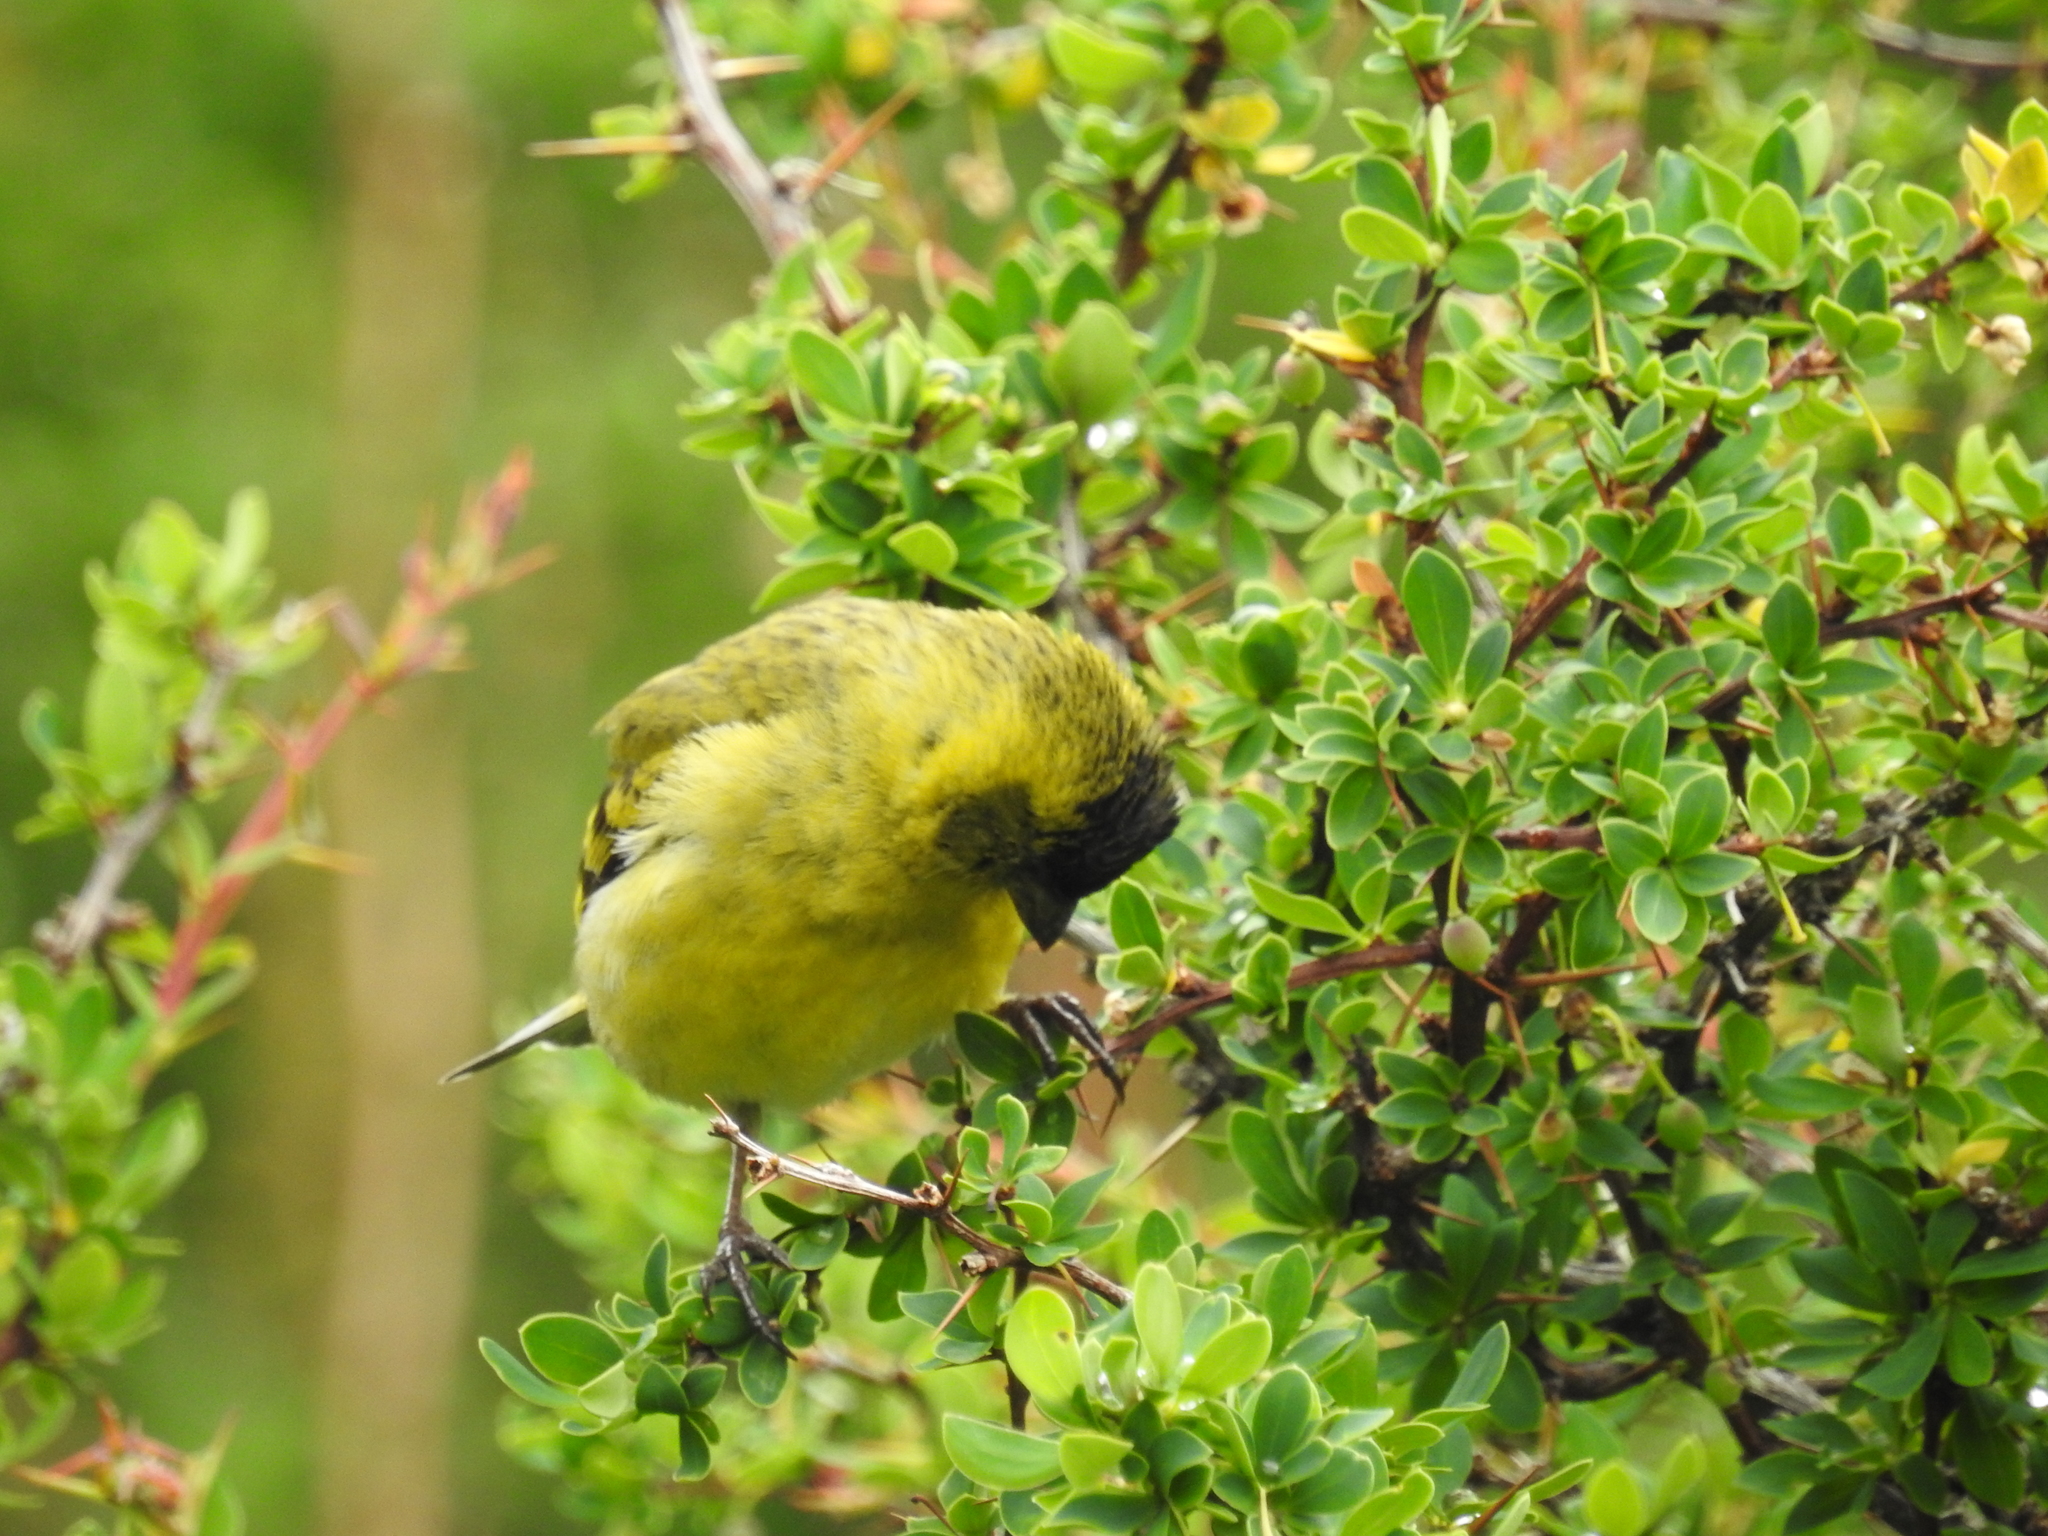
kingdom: Animalia
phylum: Chordata
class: Aves
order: Passeriformes
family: Fringillidae
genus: Spinus
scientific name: Spinus barbatus
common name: Black-chinned siskin
